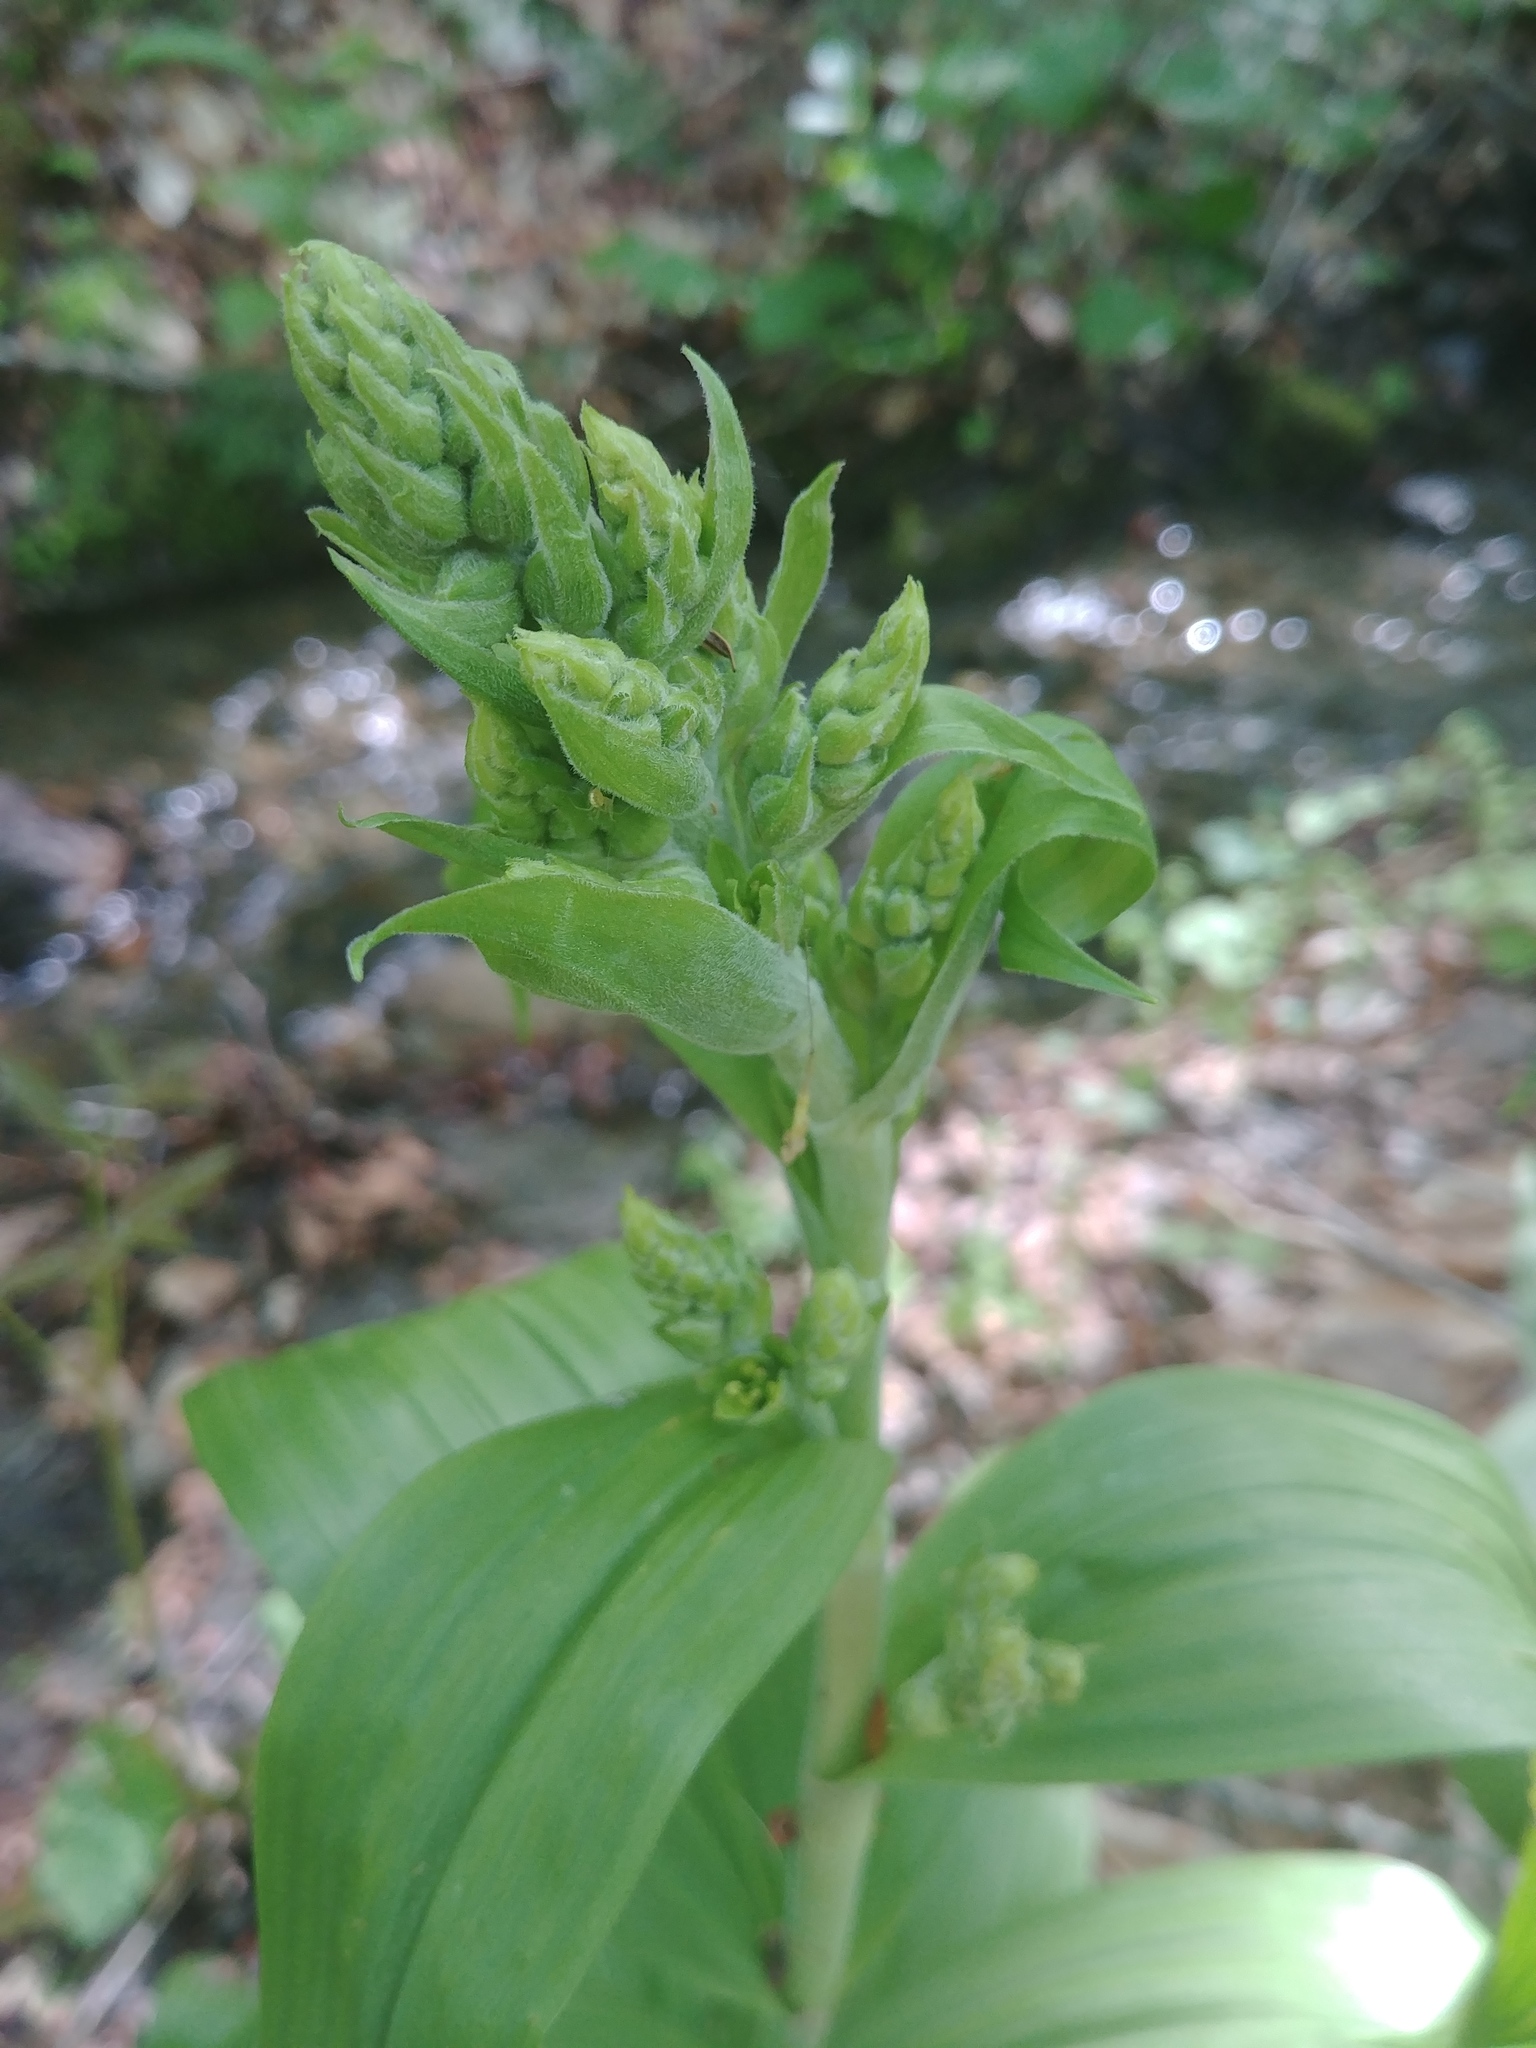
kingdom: Plantae
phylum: Tracheophyta
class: Liliopsida
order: Liliales
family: Melanthiaceae
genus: Veratrum
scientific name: Veratrum viride
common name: American false hellebore
